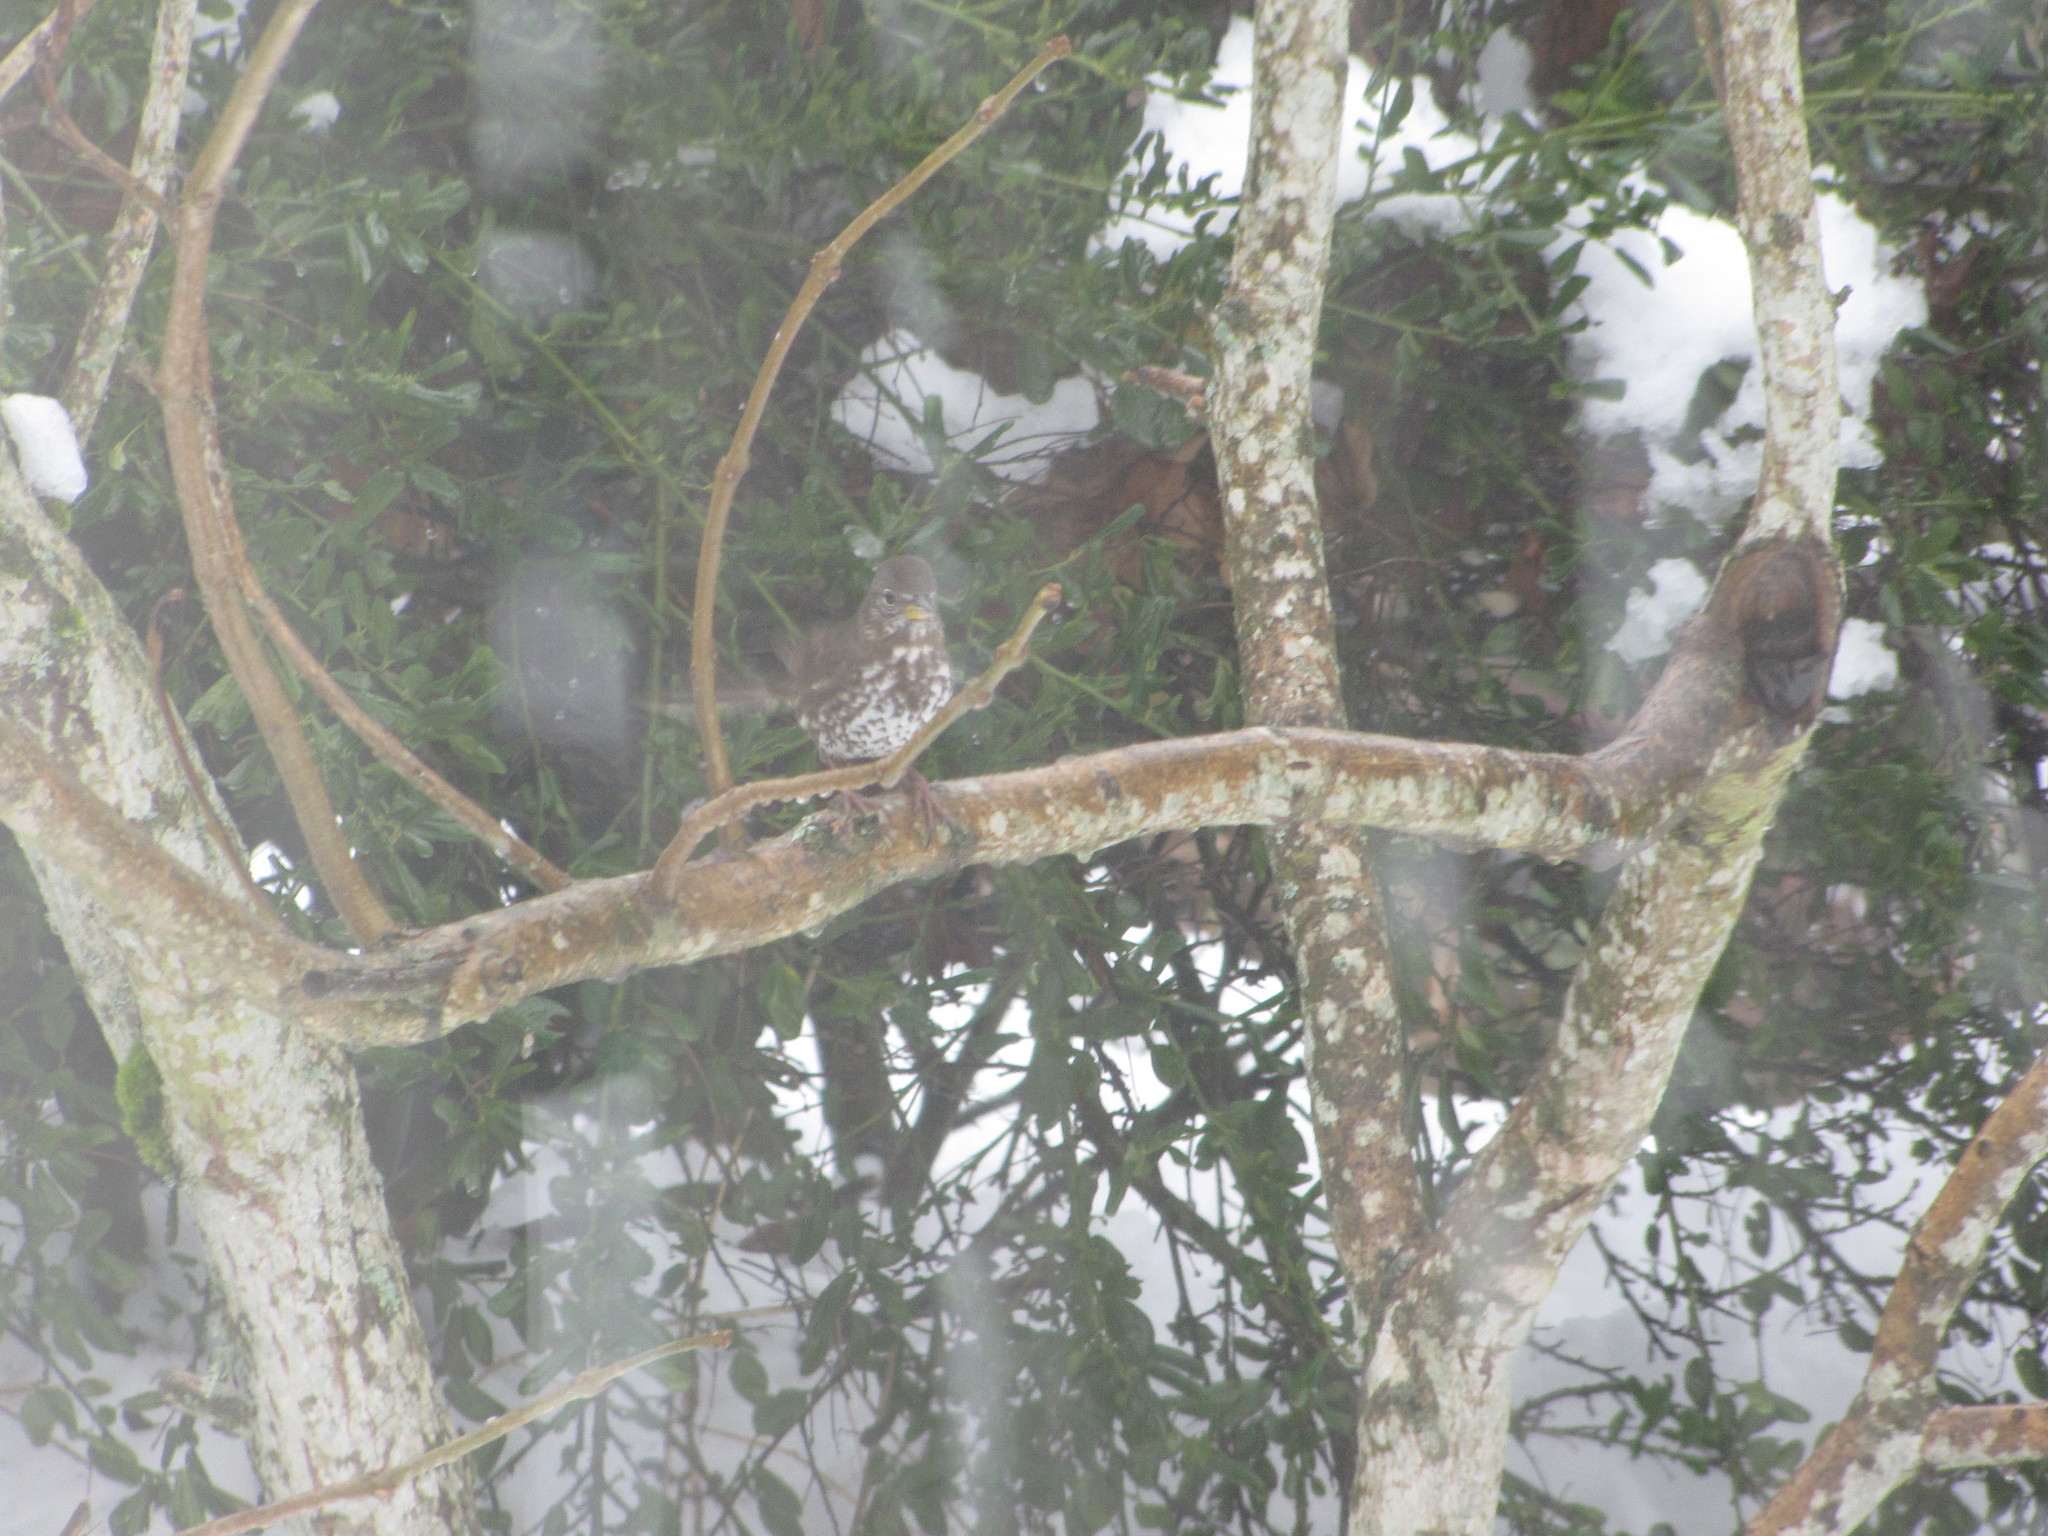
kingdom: Animalia
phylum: Chordata
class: Aves
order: Passeriformes
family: Passerellidae
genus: Passerella
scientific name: Passerella iliaca
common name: Fox sparrow
